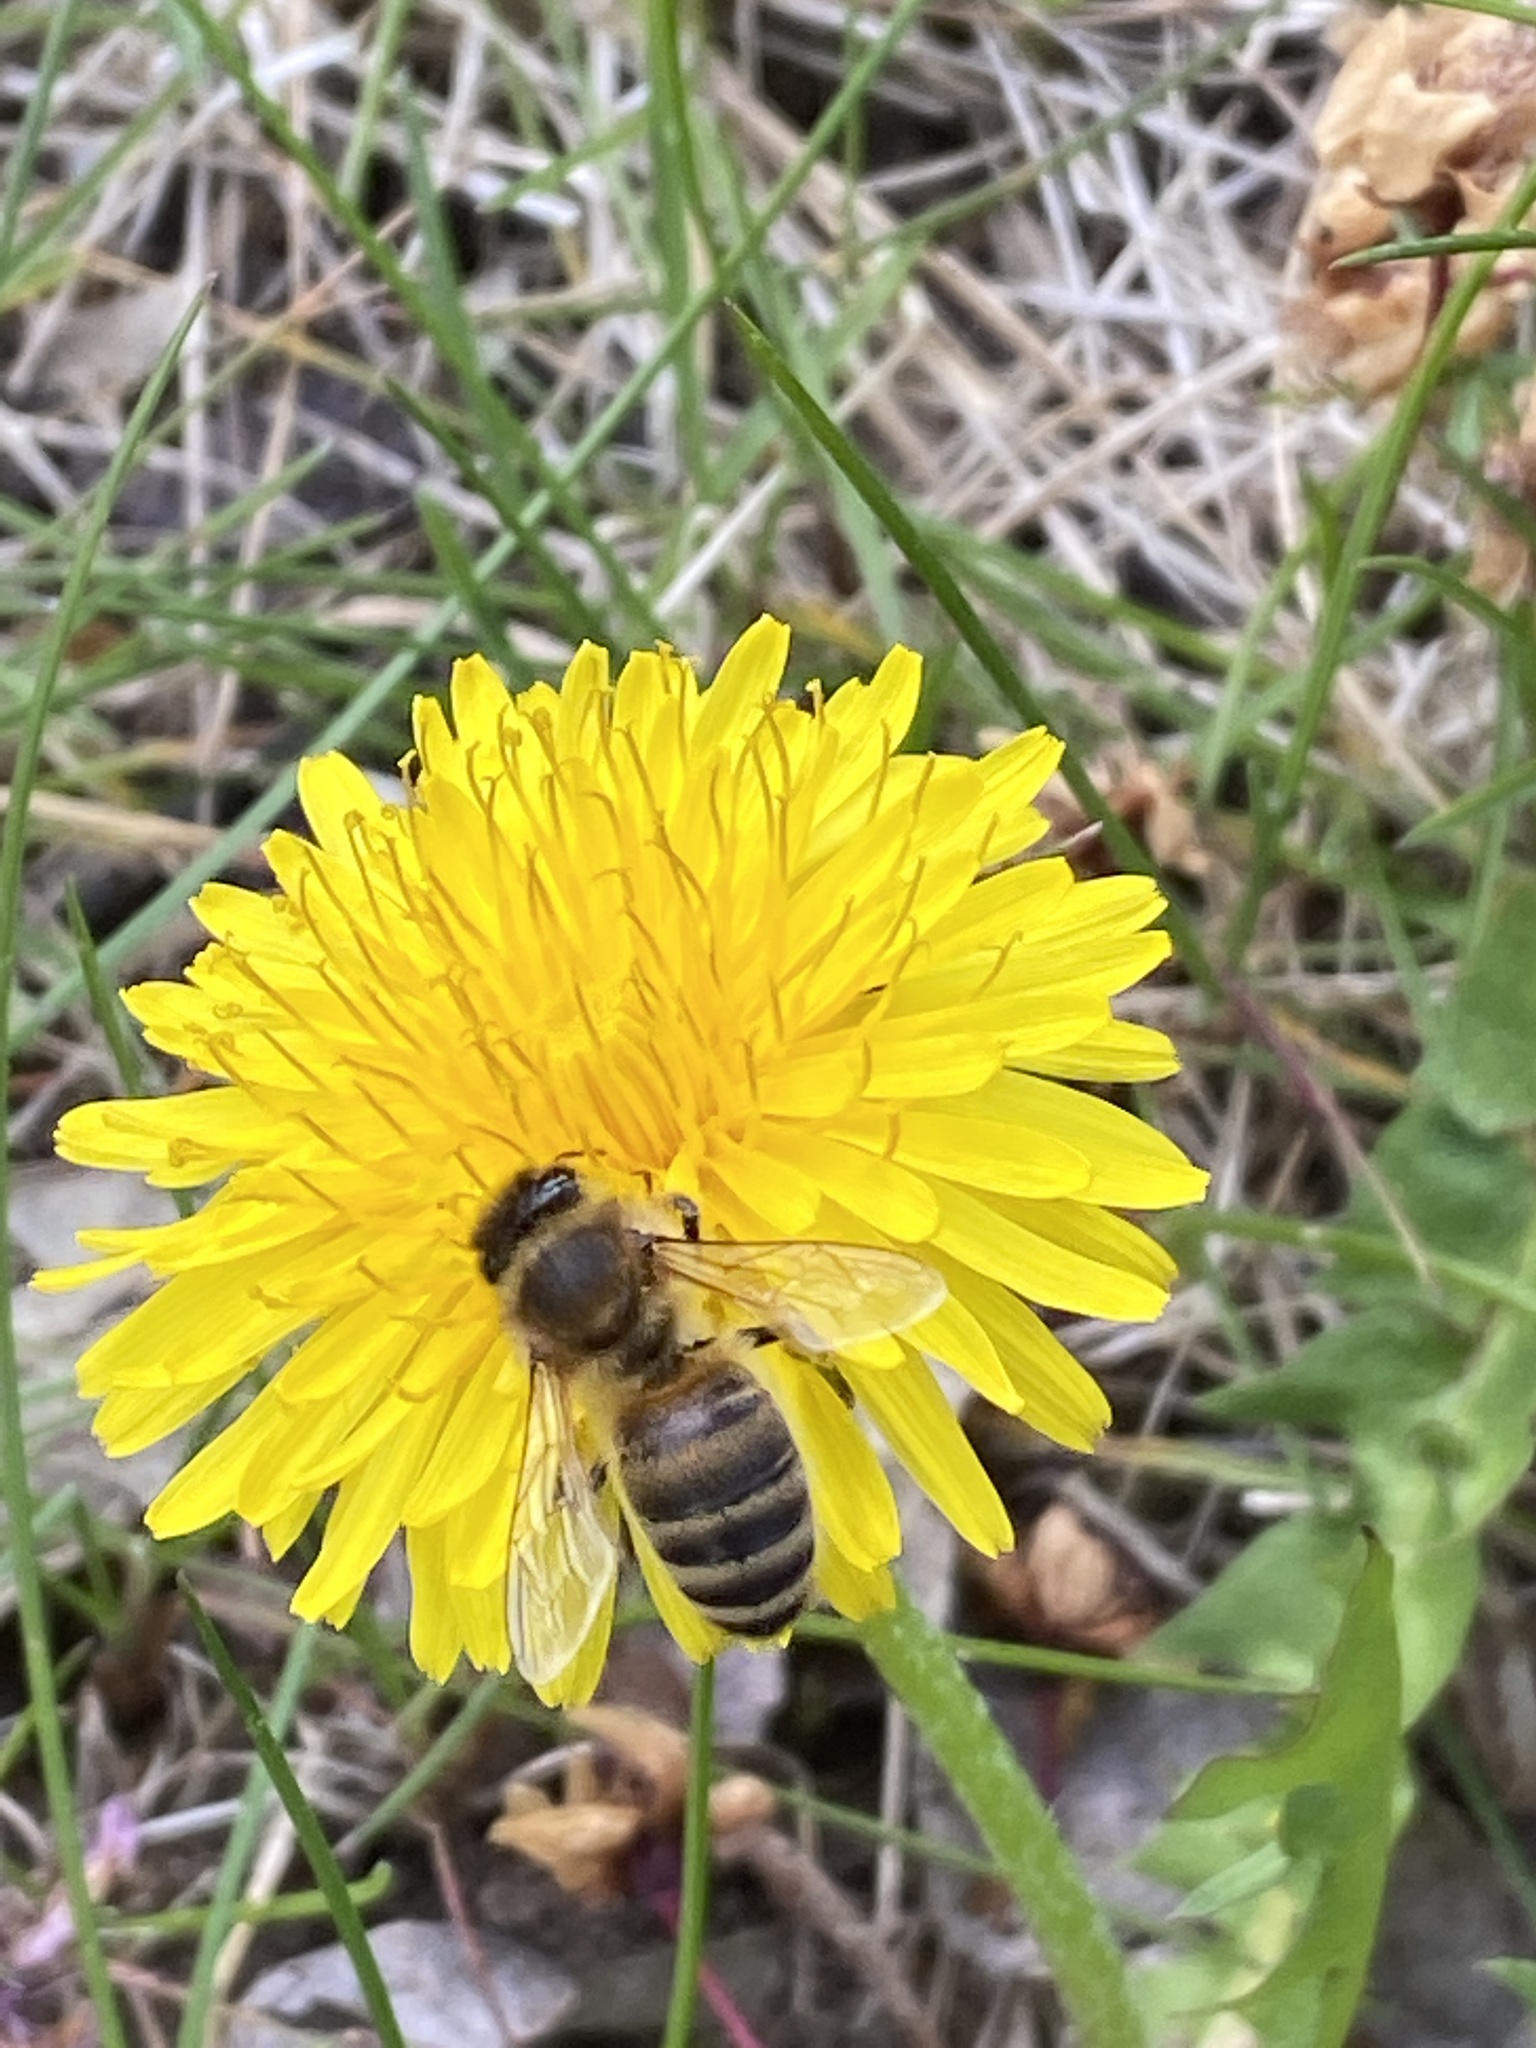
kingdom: Animalia
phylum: Arthropoda
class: Insecta
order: Hymenoptera
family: Apidae
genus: Apis
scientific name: Apis mellifera
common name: Honey bee
